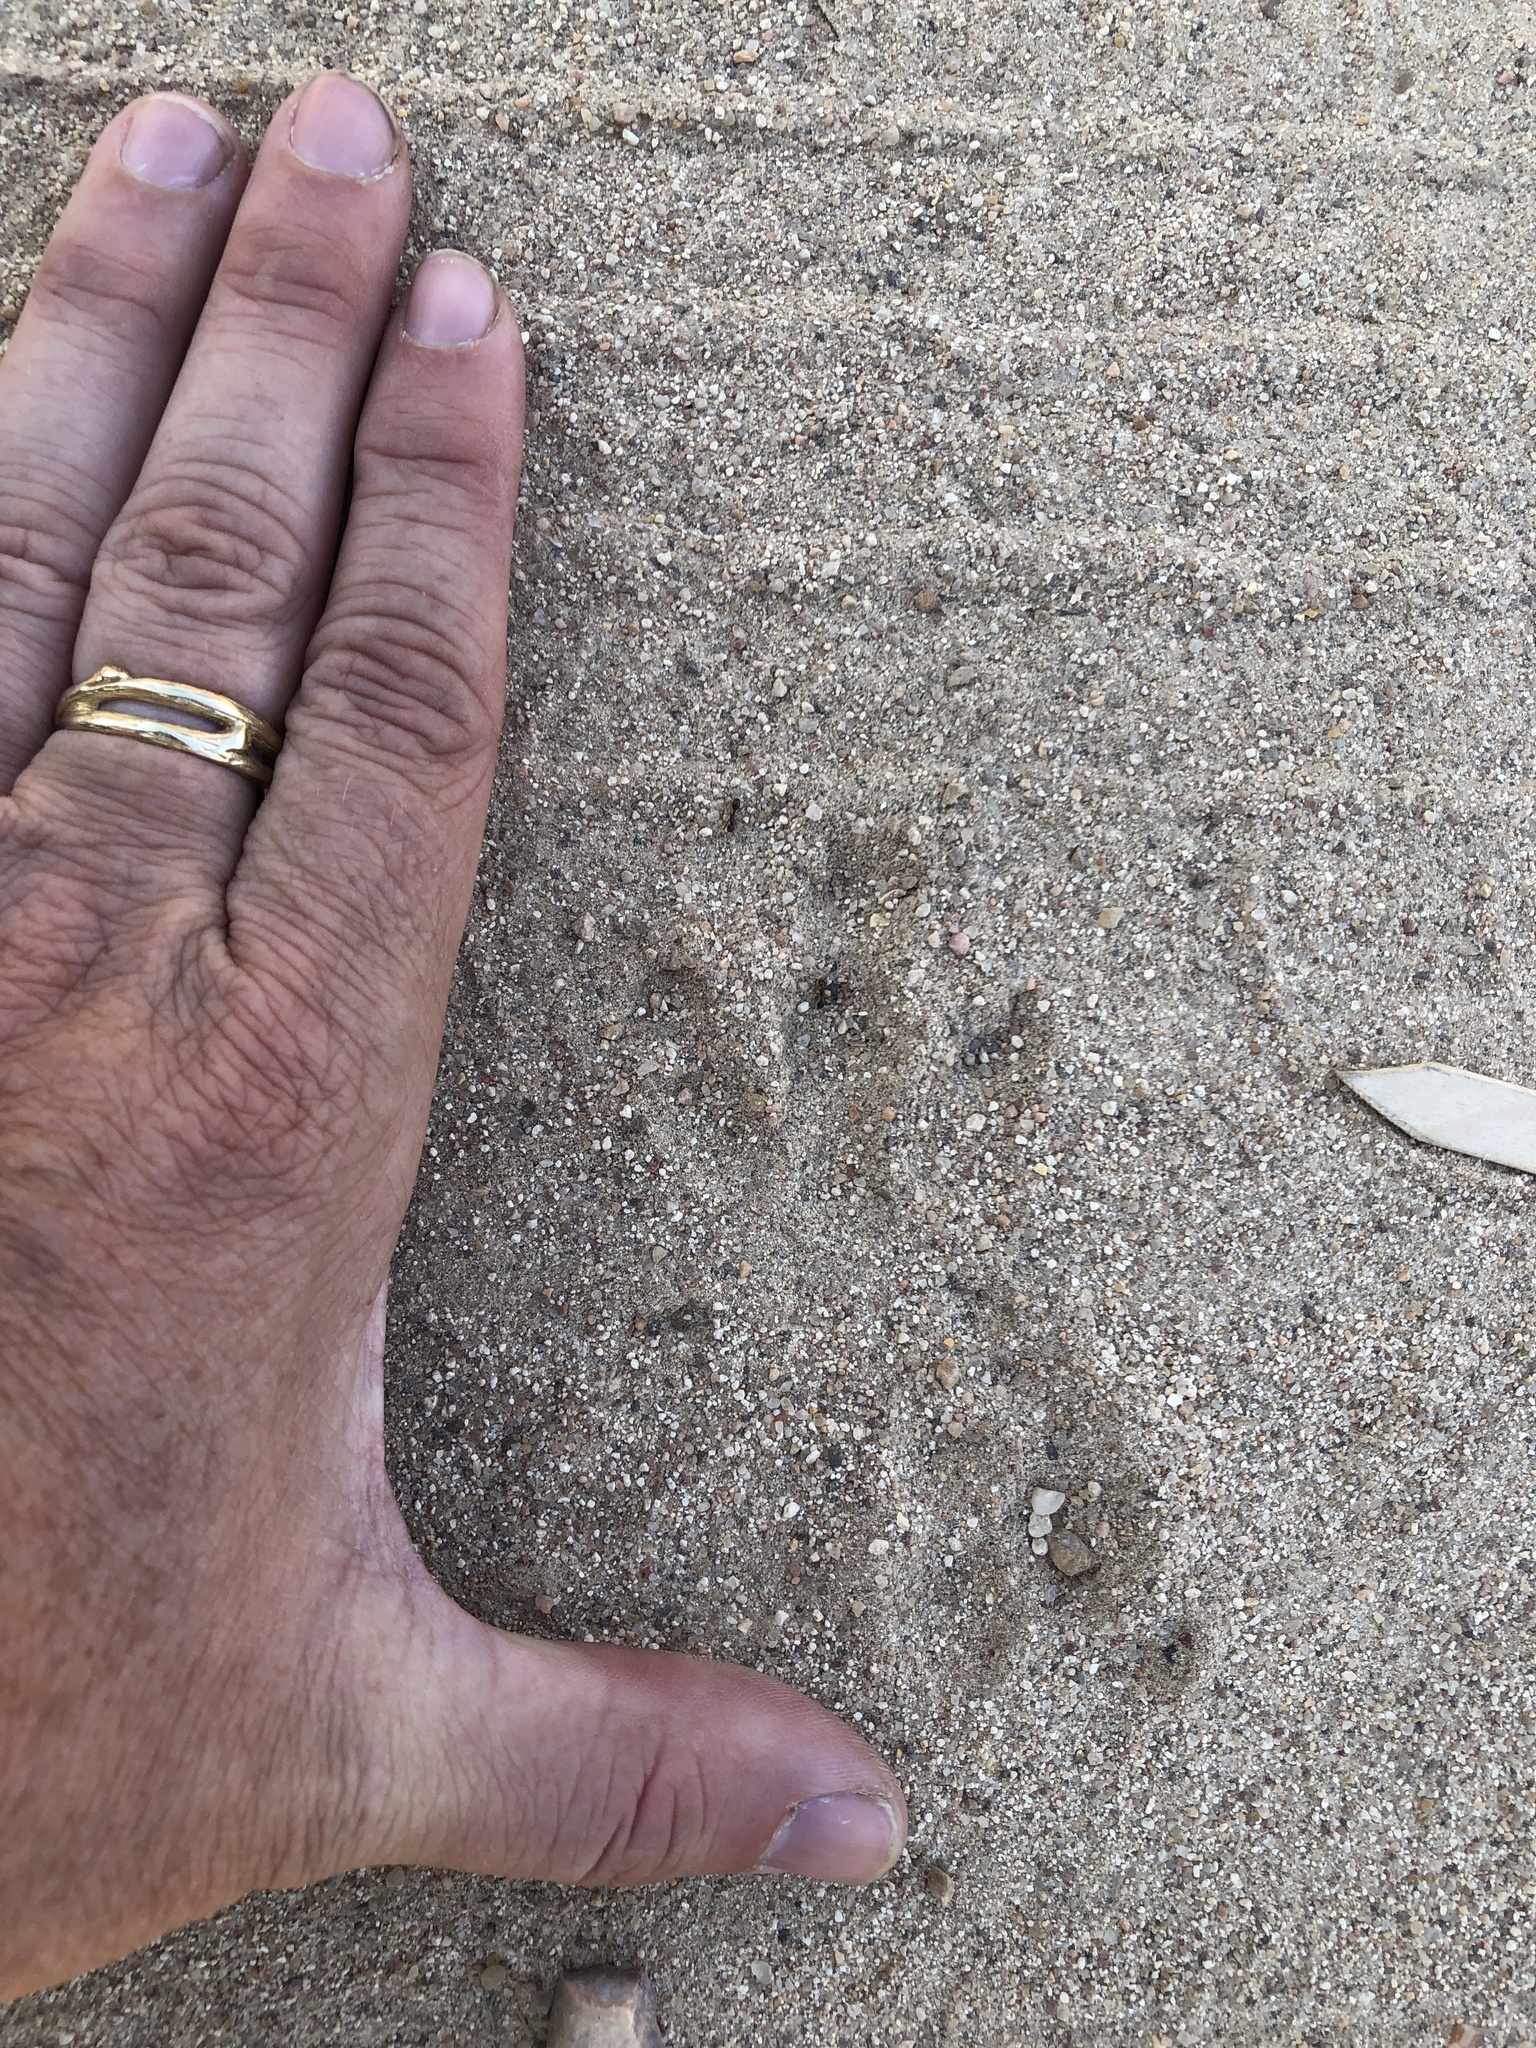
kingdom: Animalia
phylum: Chordata
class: Mammalia
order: Cingulata
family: Dasypodidae
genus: Dasypus
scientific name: Dasypus novemcinctus
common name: Nine-banded armadillo
